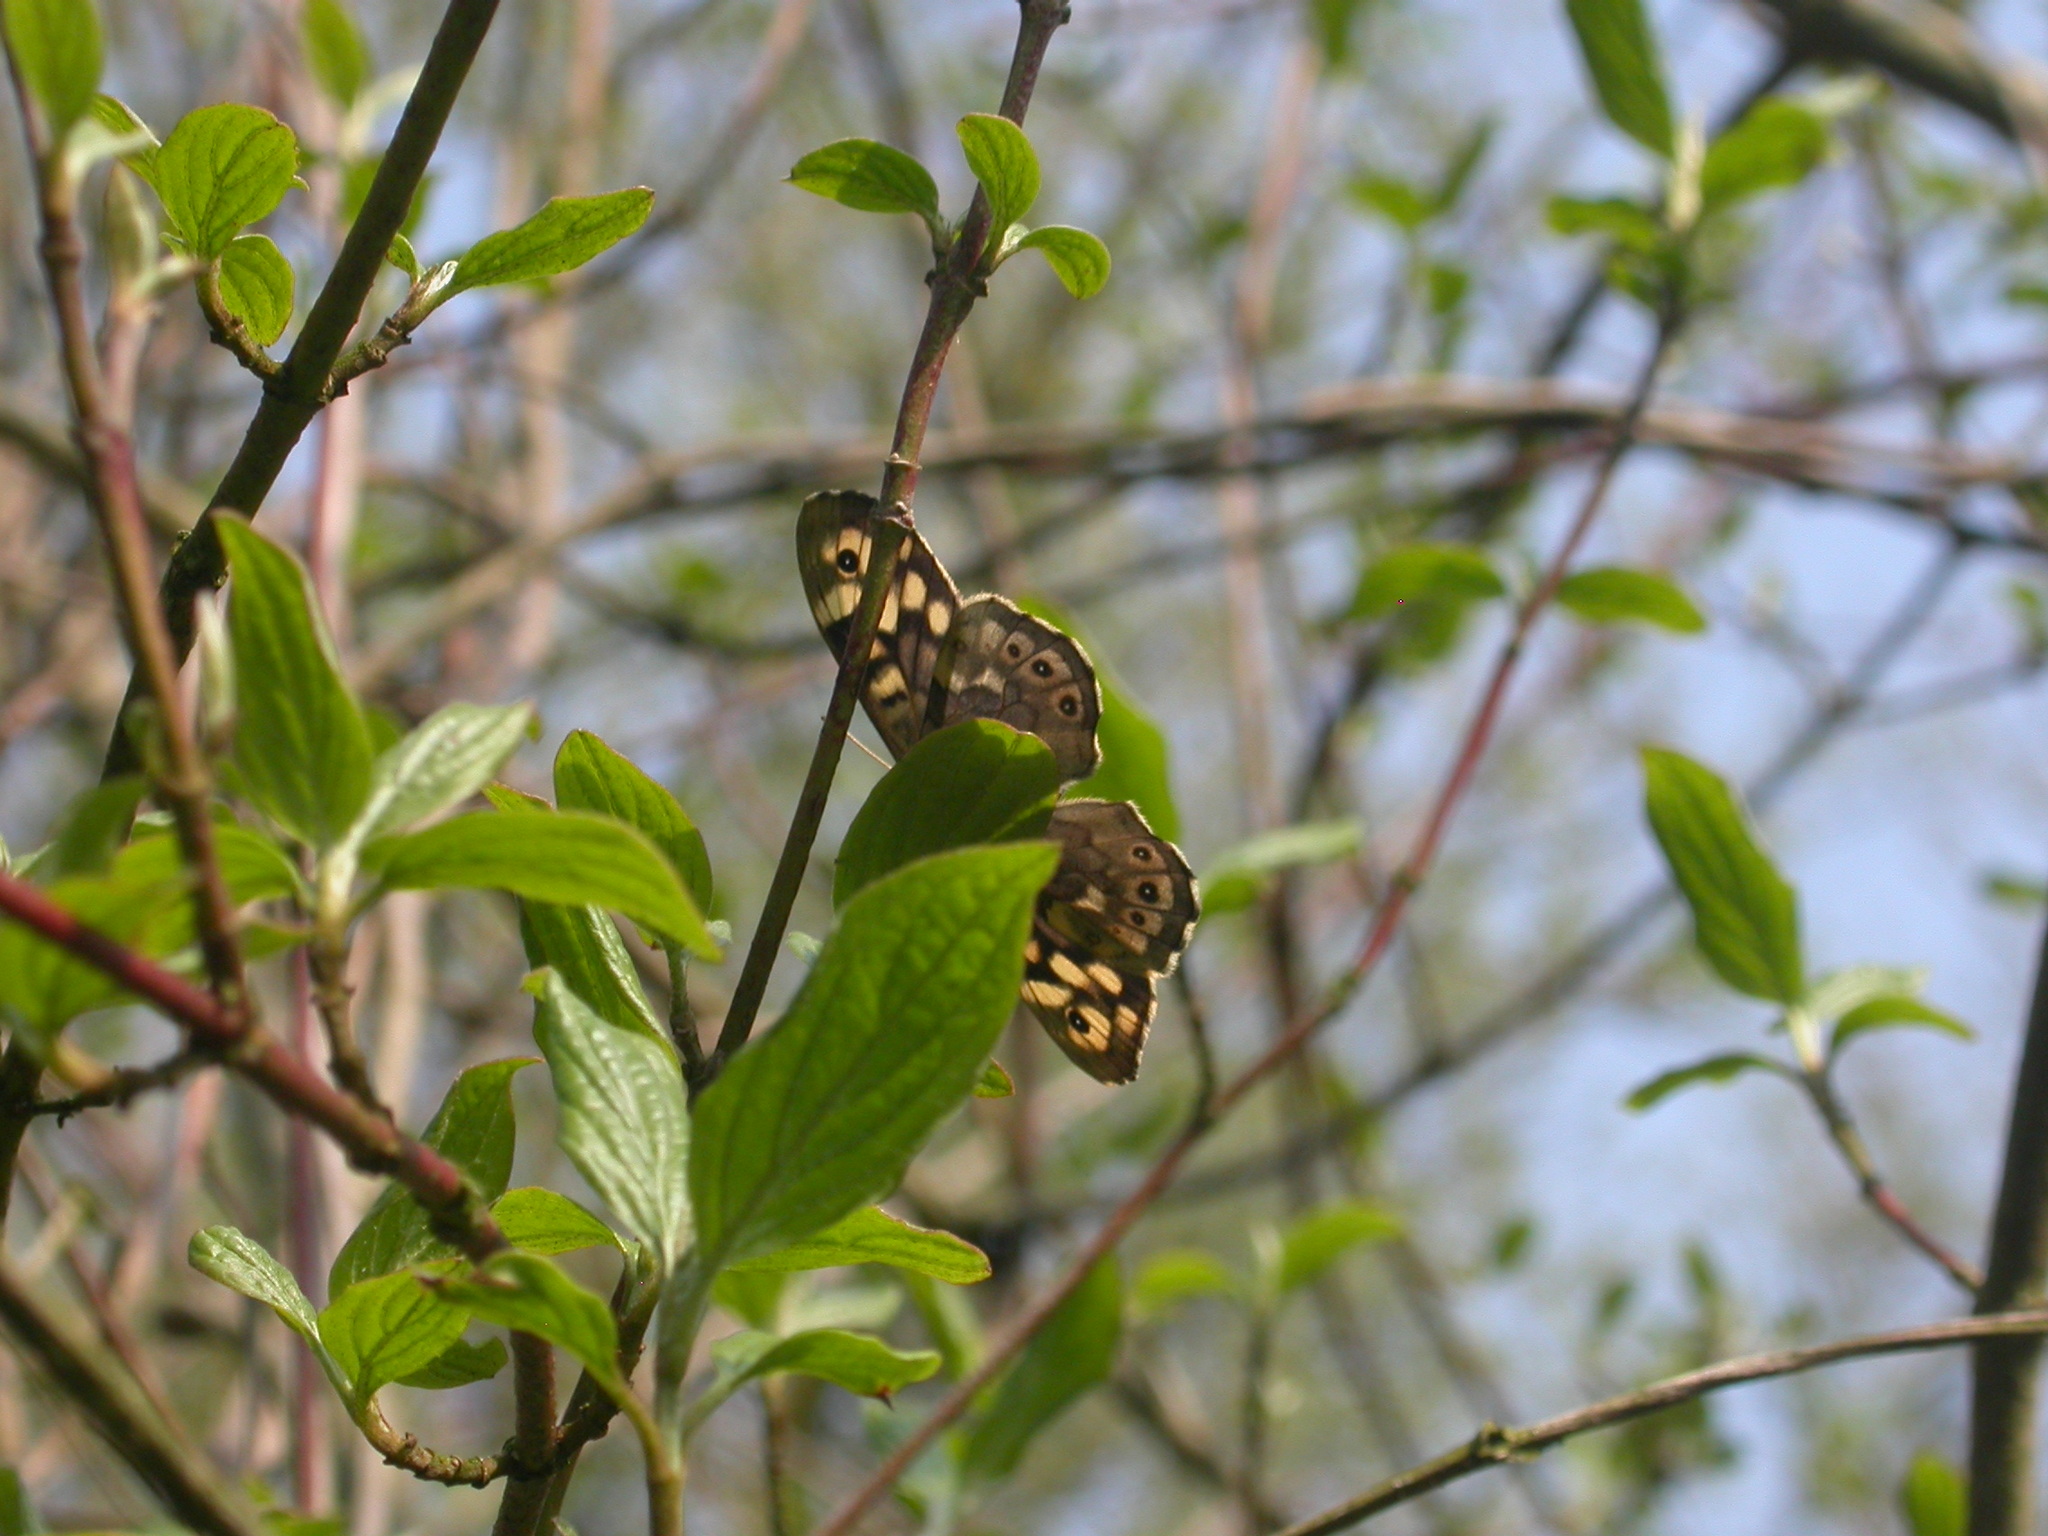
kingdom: Animalia
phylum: Arthropoda
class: Insecta
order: Lepidoptera
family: Nymphalidae
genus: Pararge
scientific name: Pararge aegeria
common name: Speckled wood
